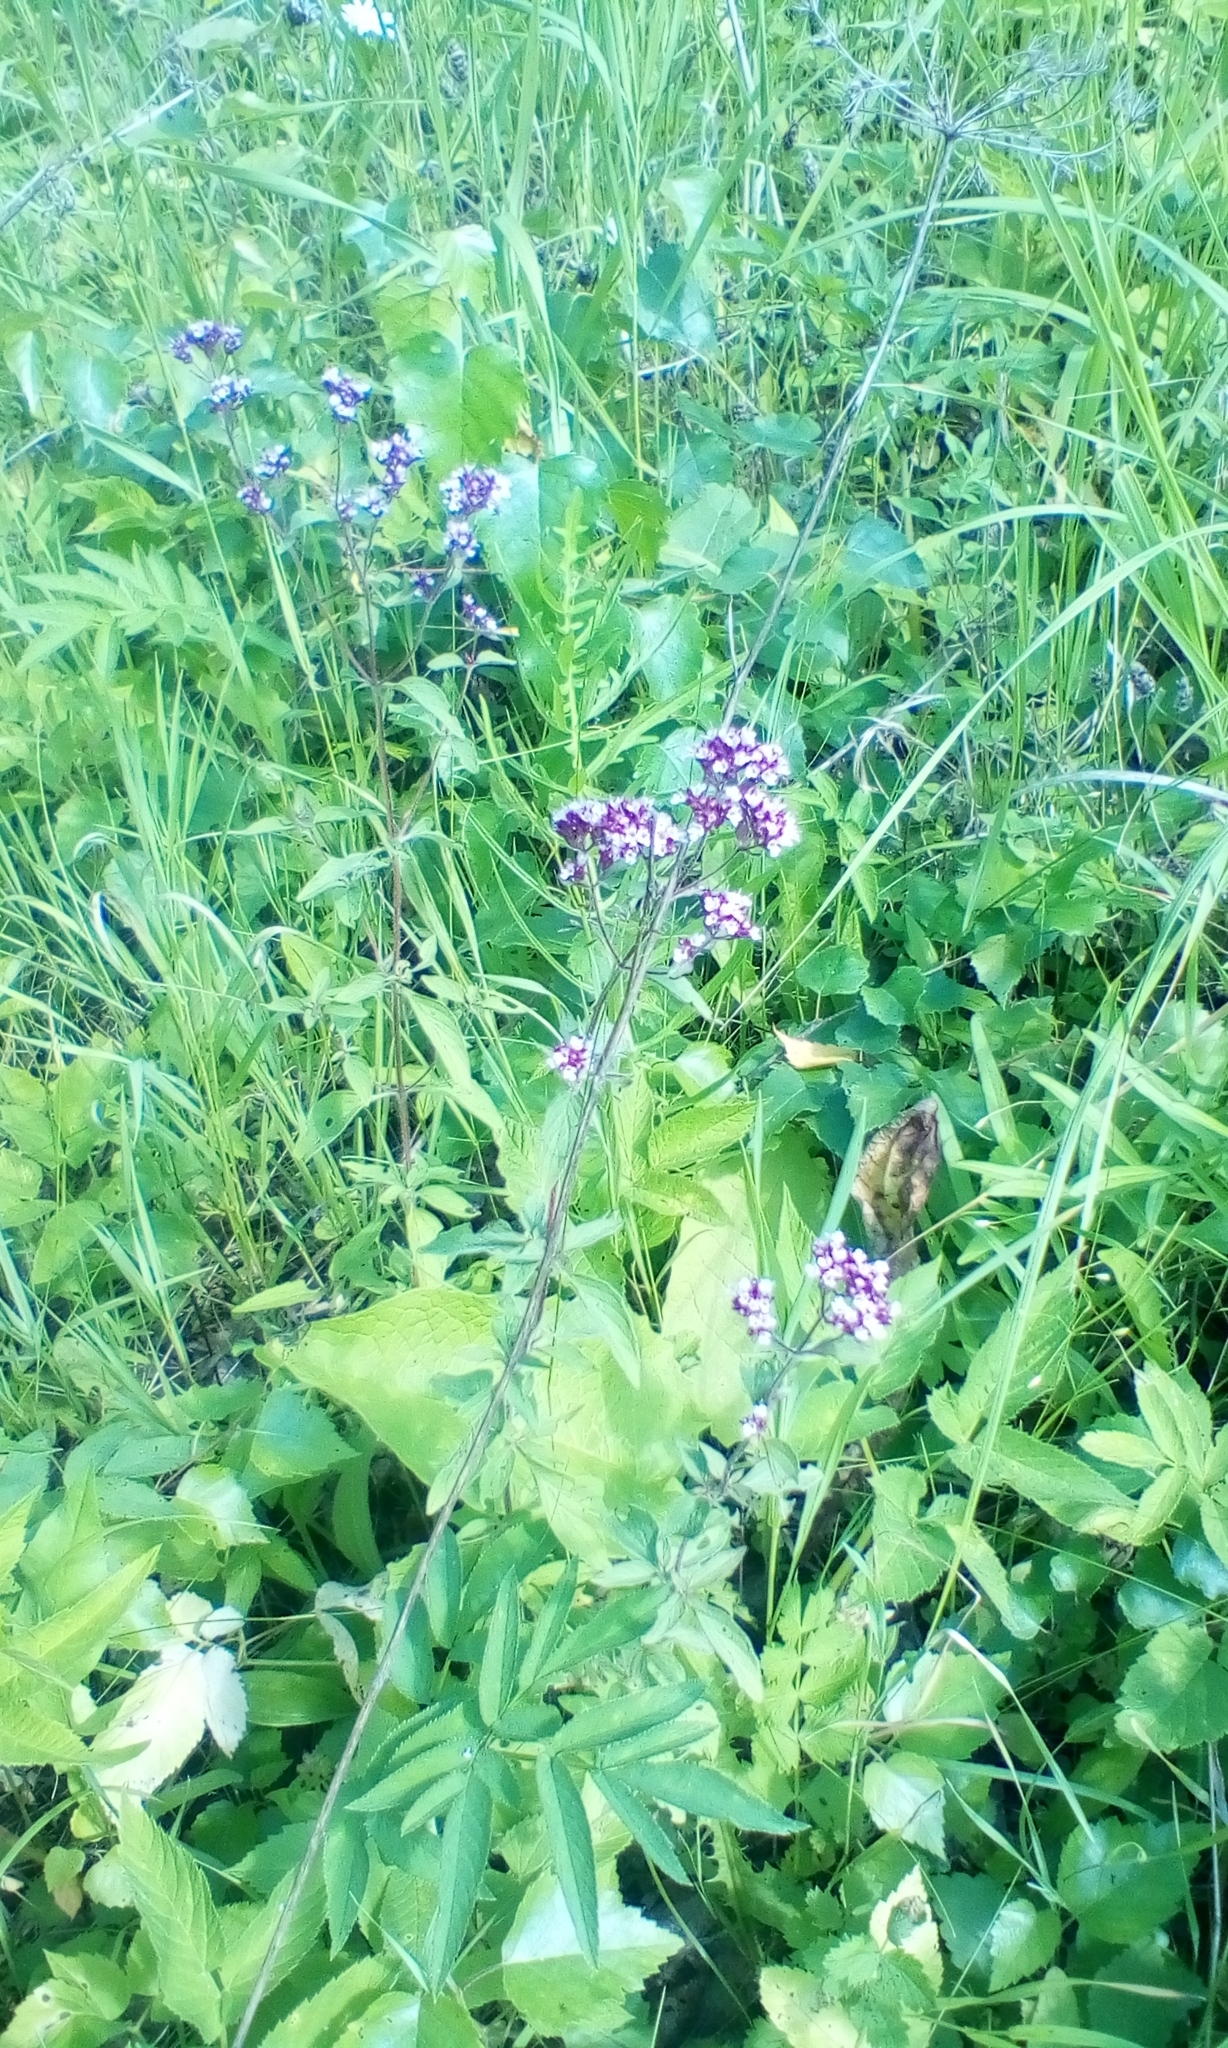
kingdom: Plantae
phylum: Tracheophyta
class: Magnoliopsida
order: Lamiales
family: Lamiaceae
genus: Origanum
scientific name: Origanum vulgare
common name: Wild marjoram
